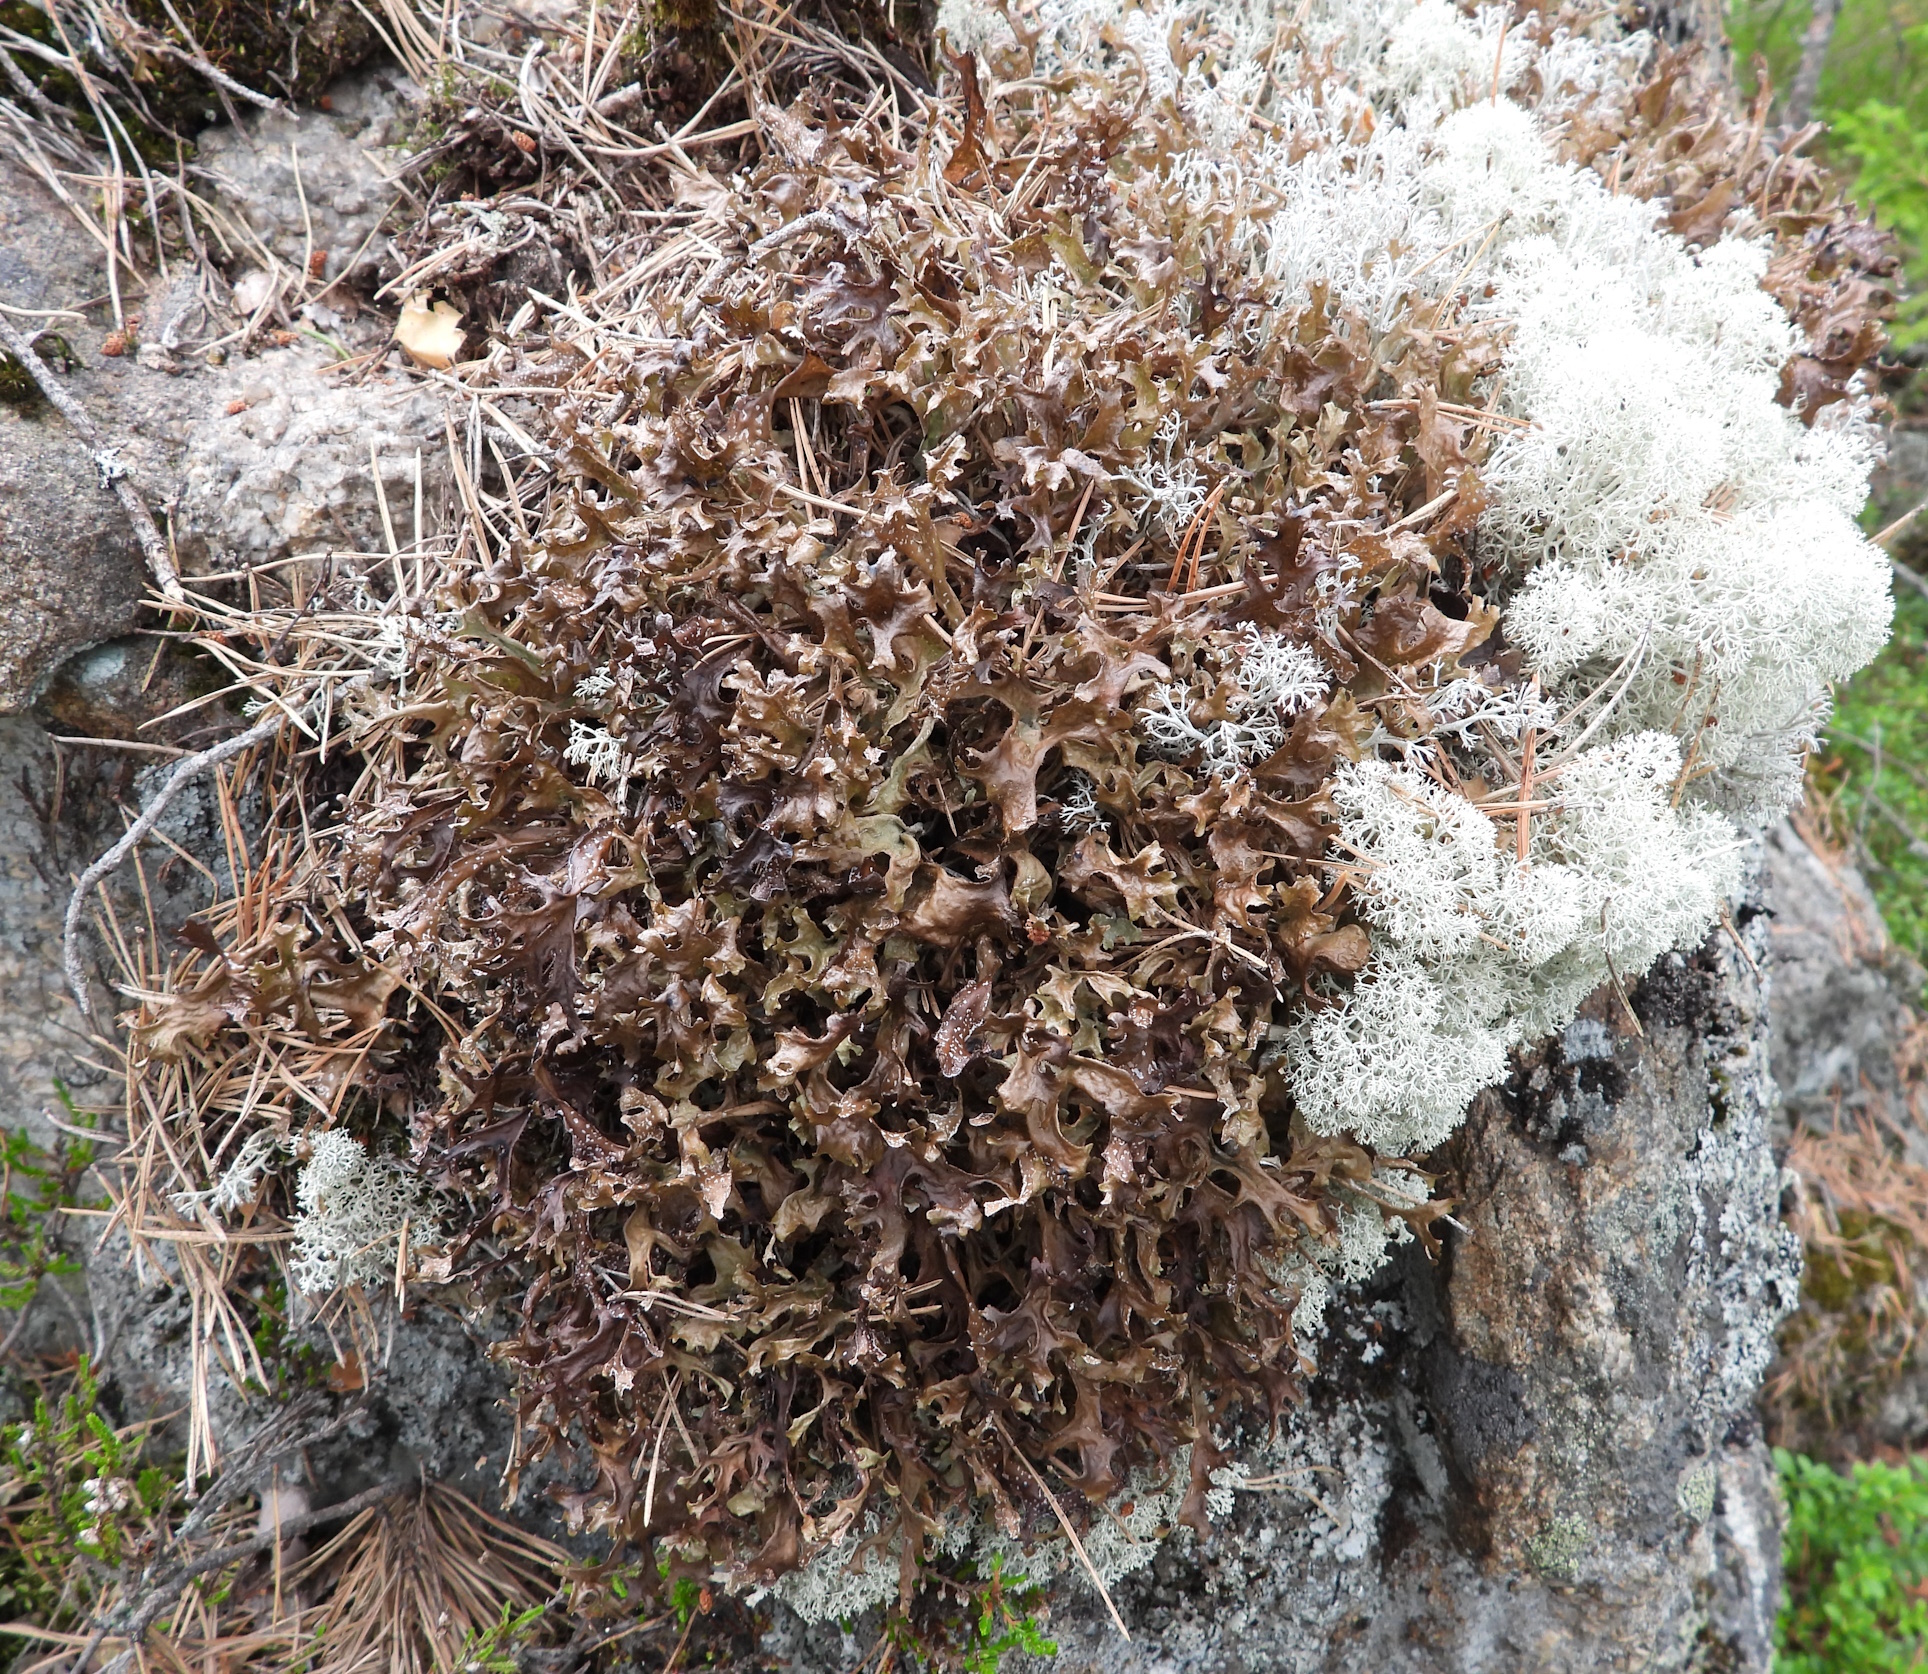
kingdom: Fungi
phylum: Ascomycota
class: Lecanoromycetes
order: Lecanorales
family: Parmeliaceae
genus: Cetraria
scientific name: Cetraria islandica
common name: Iceland lichen
